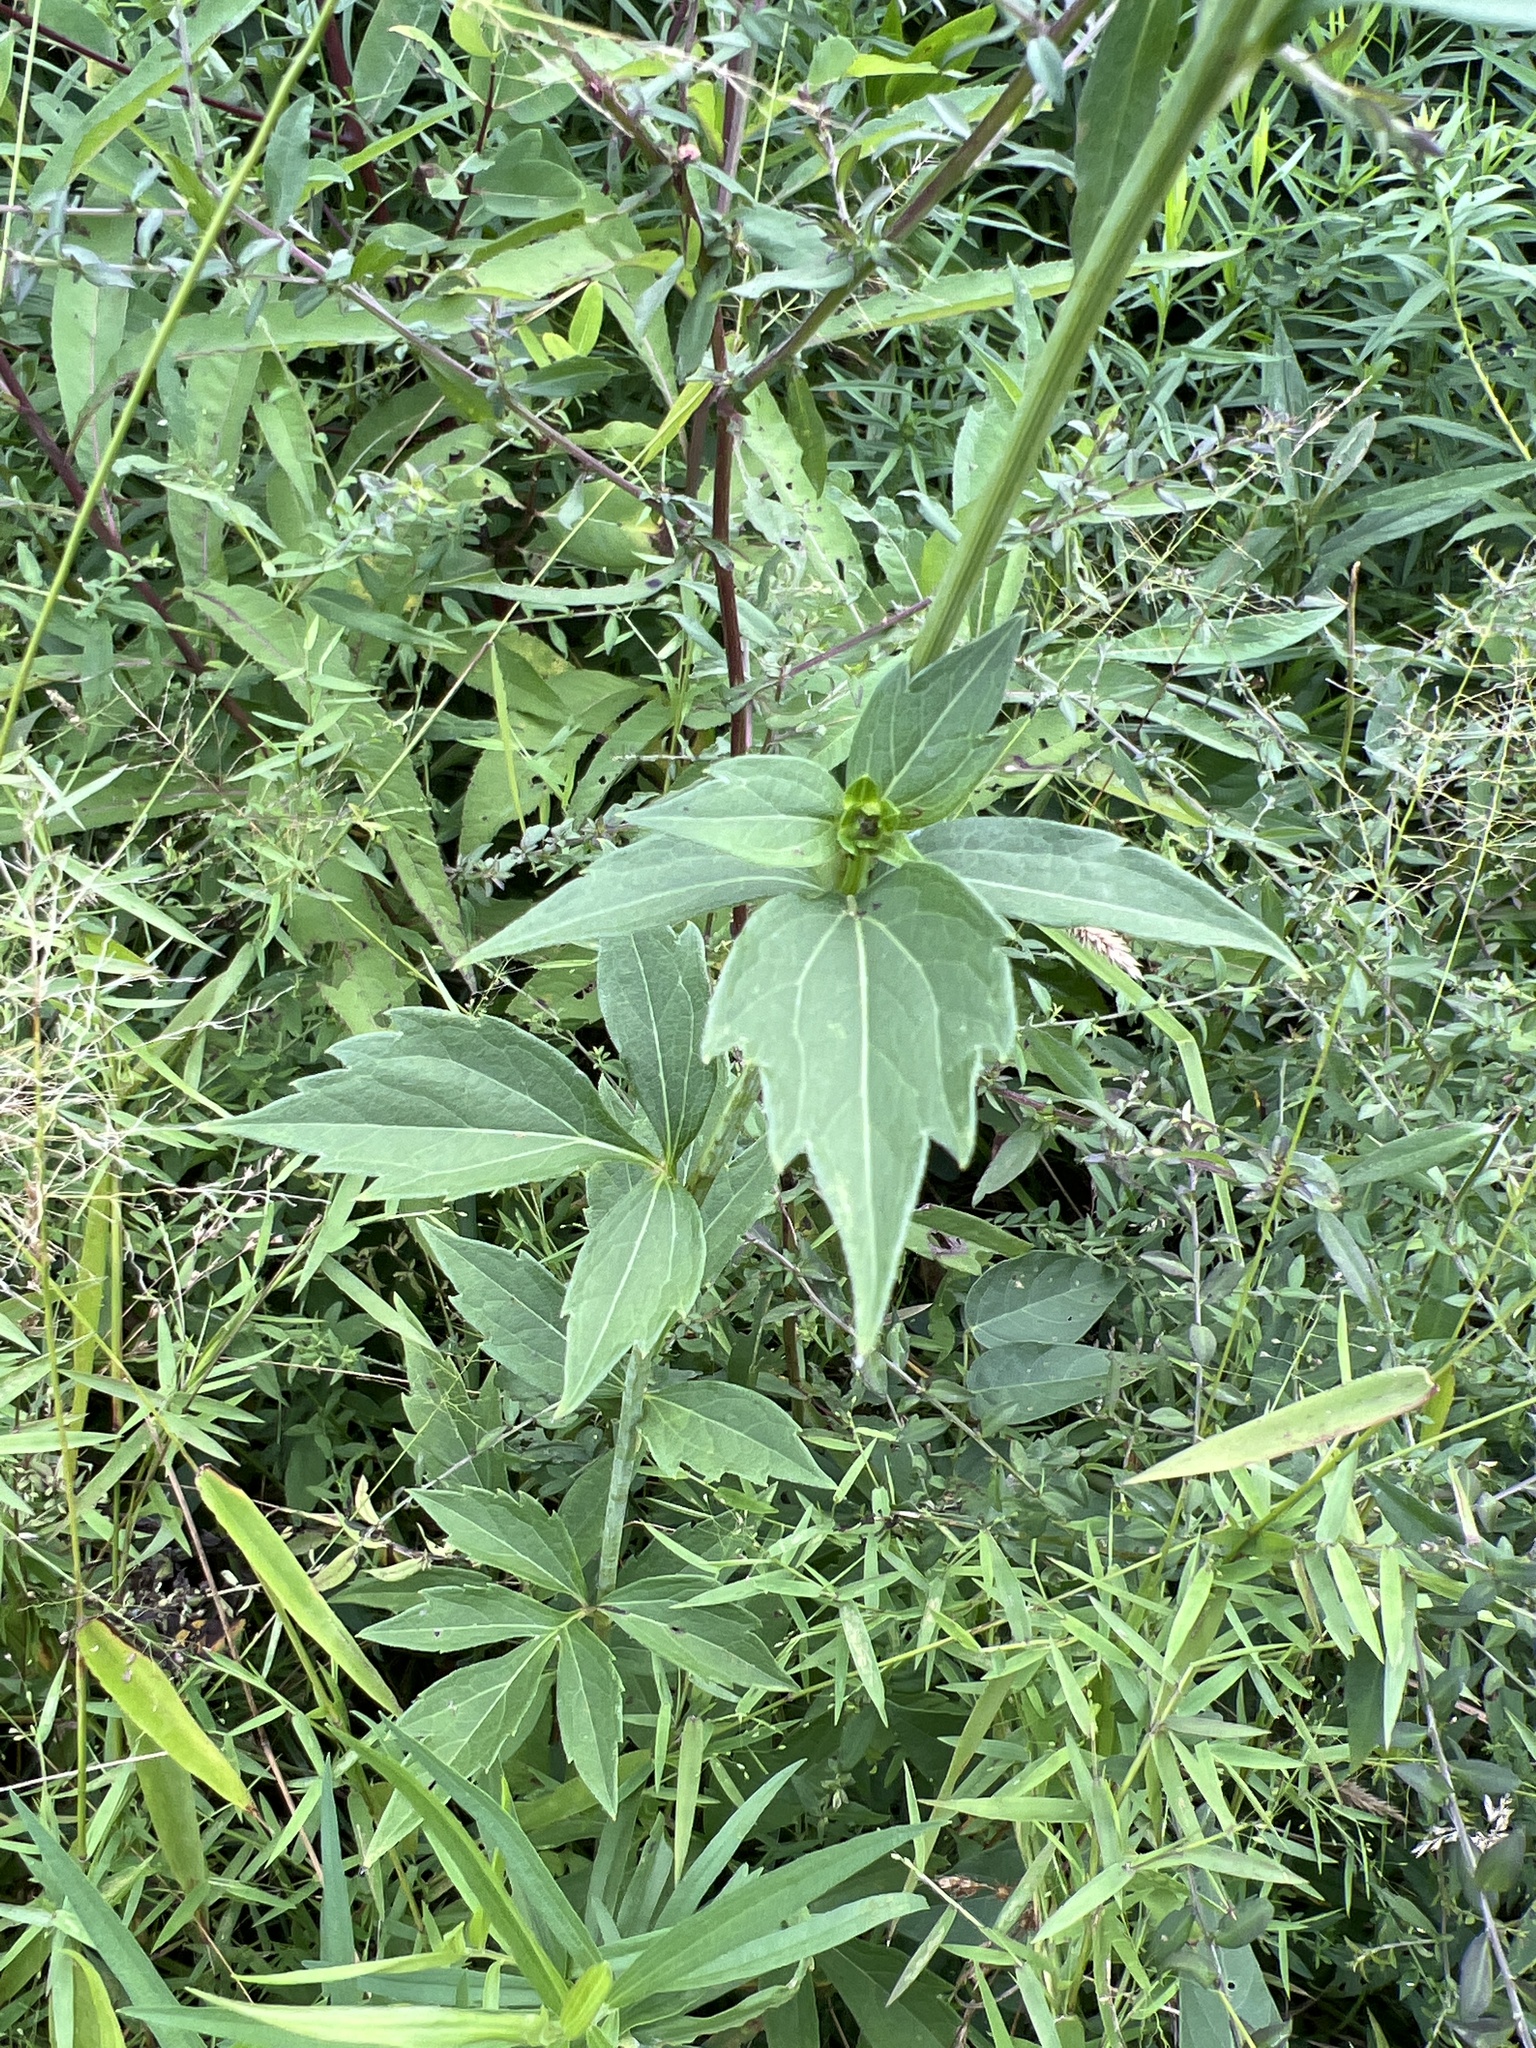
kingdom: Plantae
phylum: Tracheophyta
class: Magnoliopsida
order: Asterales
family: Asteraceae
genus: Rudbeckia
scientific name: Rudbeckia laciniata
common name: Coneflower
